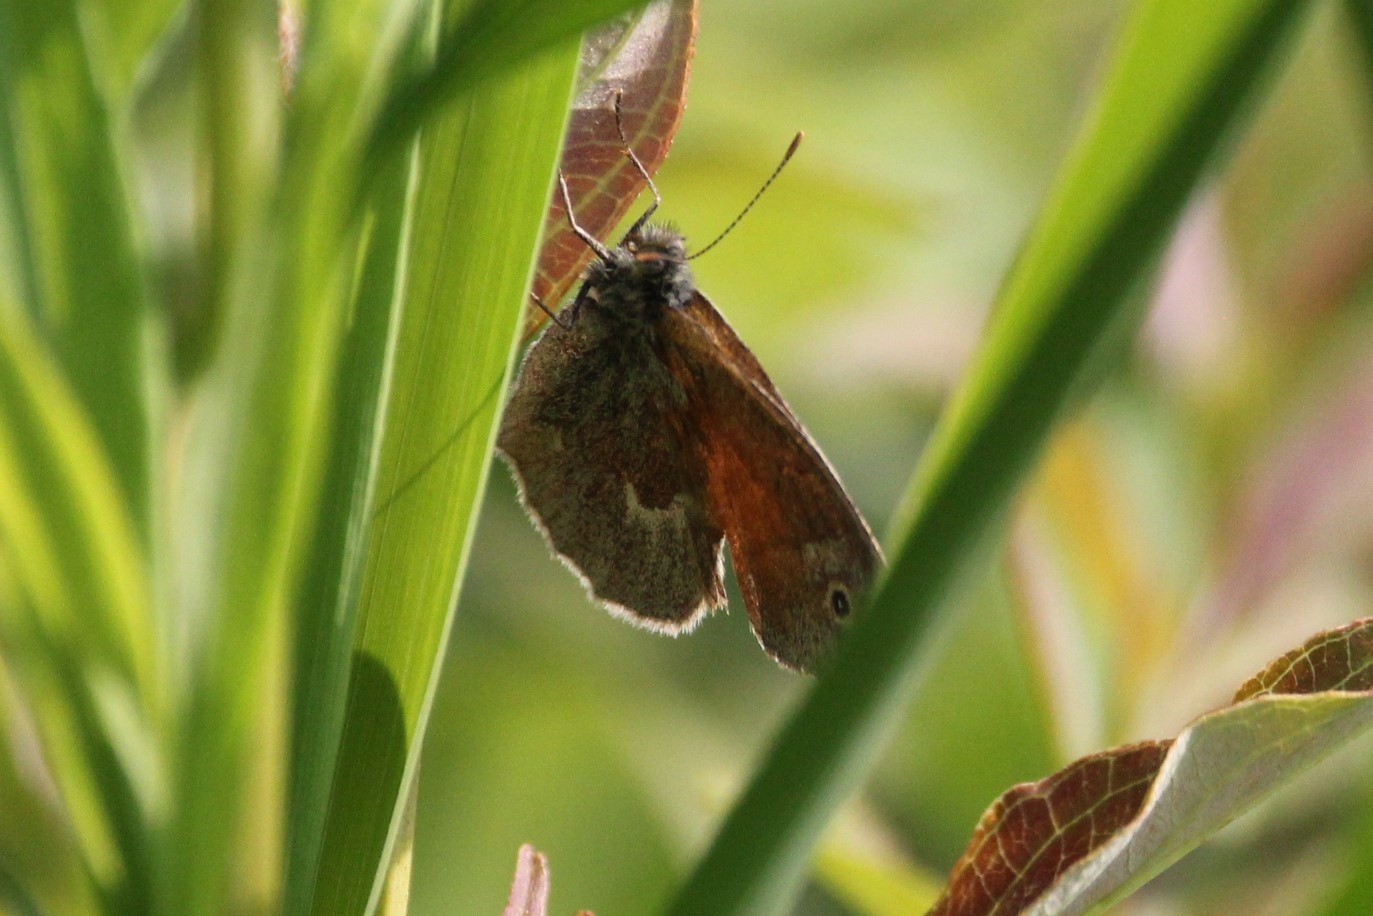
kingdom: Animalia
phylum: Arthropoda
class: Insecta
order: Lepidoptera
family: Nymphalidae
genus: Coenonympha
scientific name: Coenonympha california
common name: Common ringlet
